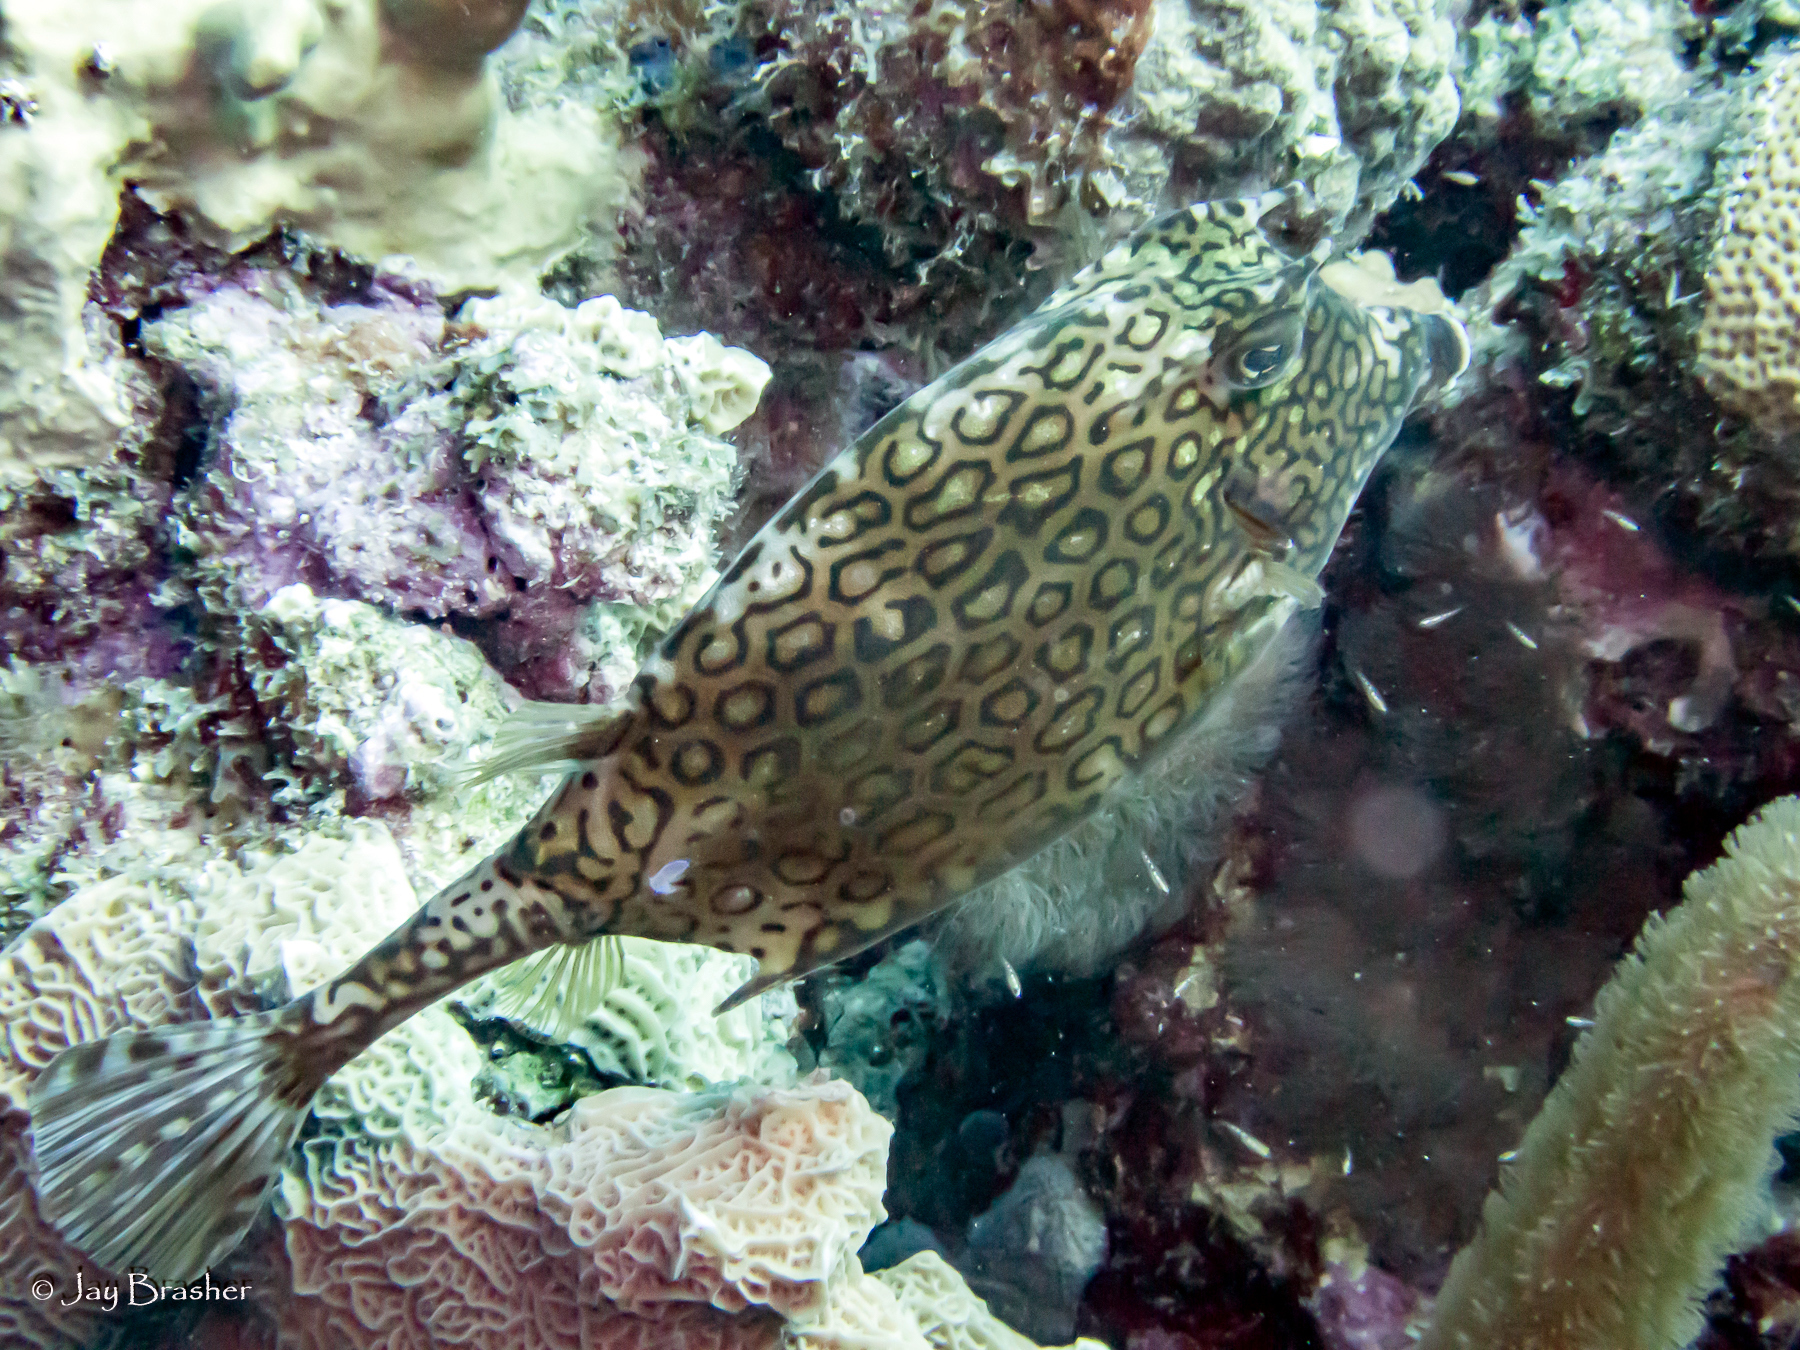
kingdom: Animalia
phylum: Chordata
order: Tetraodontiformes
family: Ostraciidae
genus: Acanthostracion
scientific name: Acanthostracion polygonius
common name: Honeycomb cowfish
